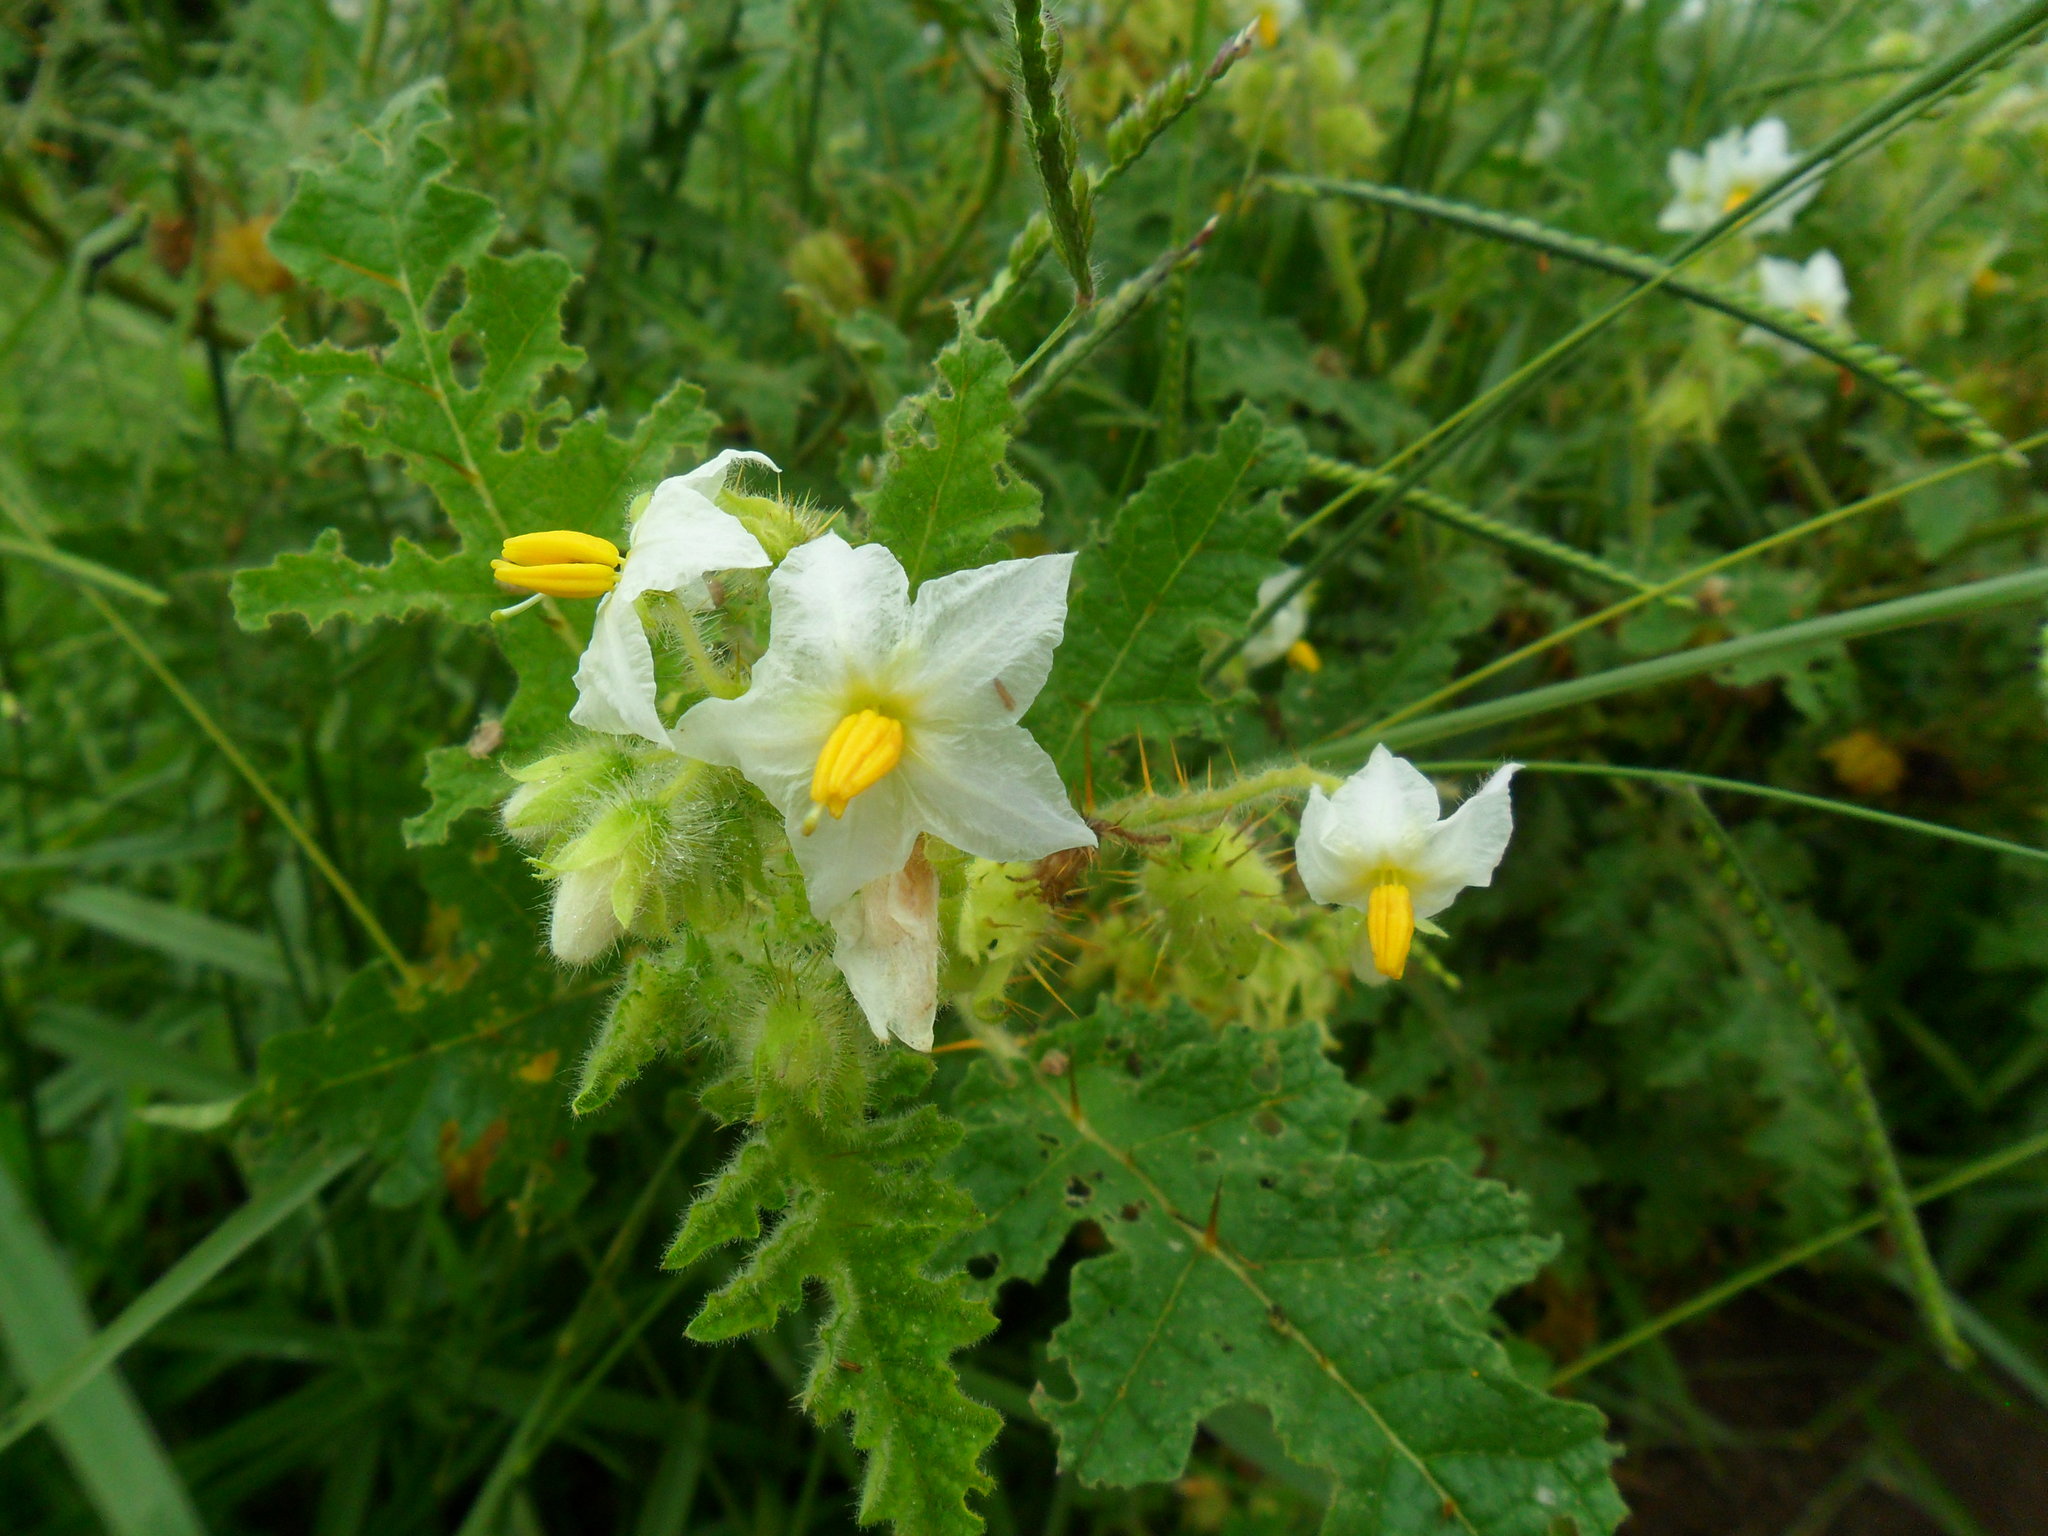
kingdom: Plantae
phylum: Tracheophyta
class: Magnoliopsida
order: Solanales
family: Solanaceae
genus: Solanum
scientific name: Solanum sisymbriifolium
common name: Red buffalo-bur
